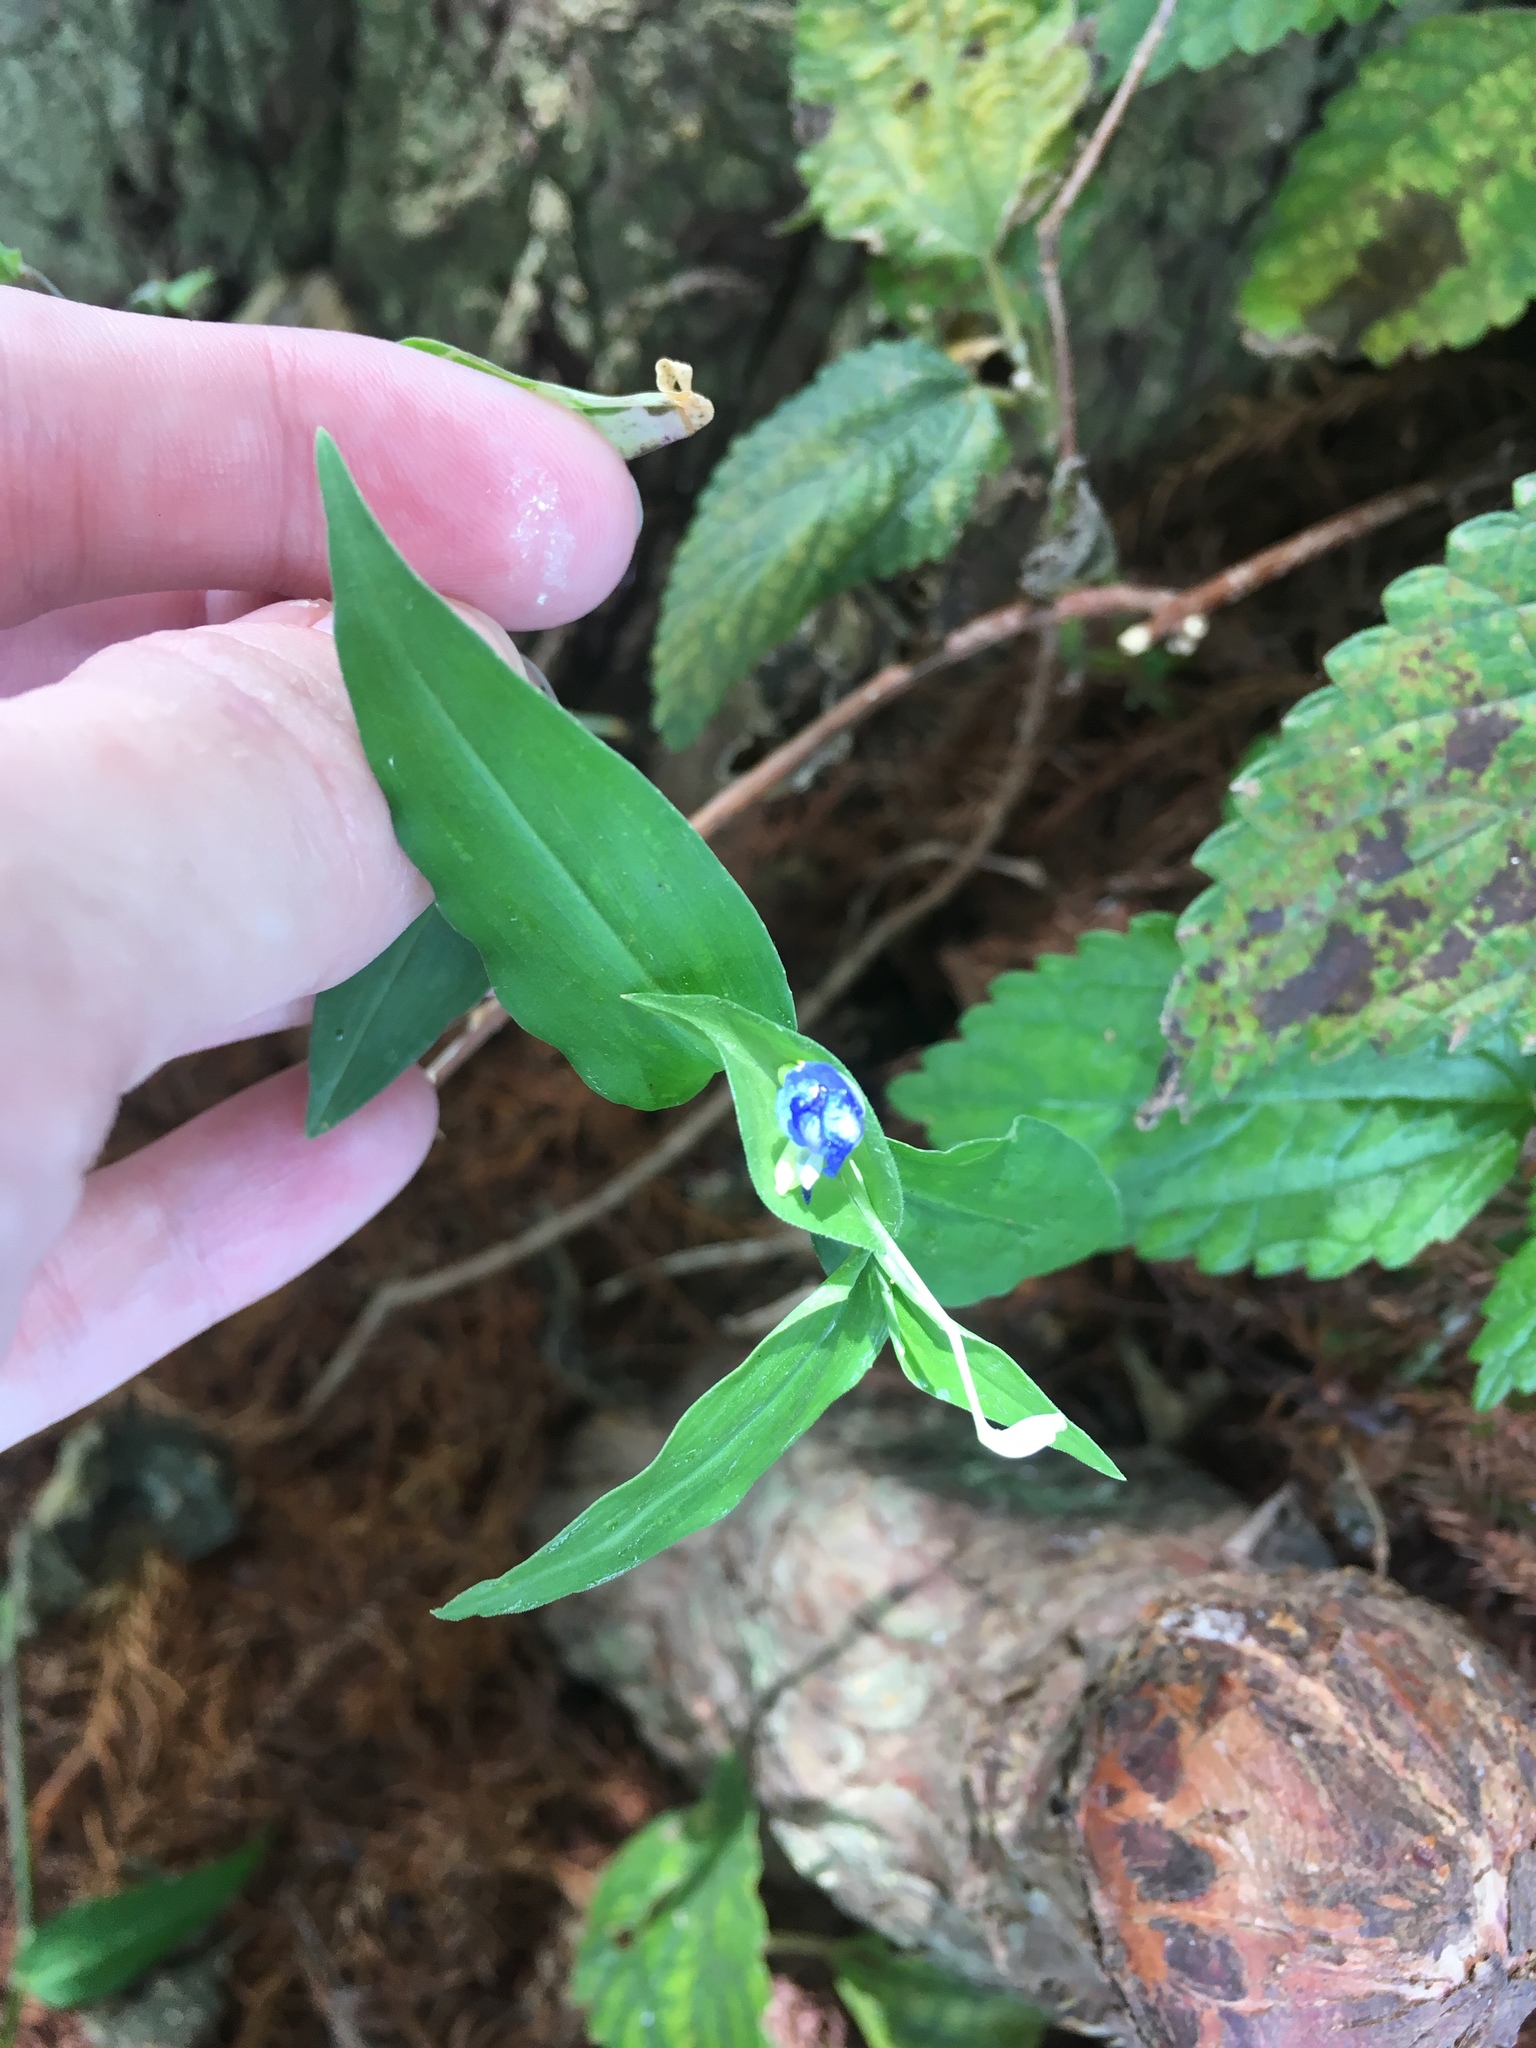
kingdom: Plantae
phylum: Tracheophyta
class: Liliopsida
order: Commelinales
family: Commelinaceae
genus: Commelina
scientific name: Commelina diffusa
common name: Climbing dayflower
